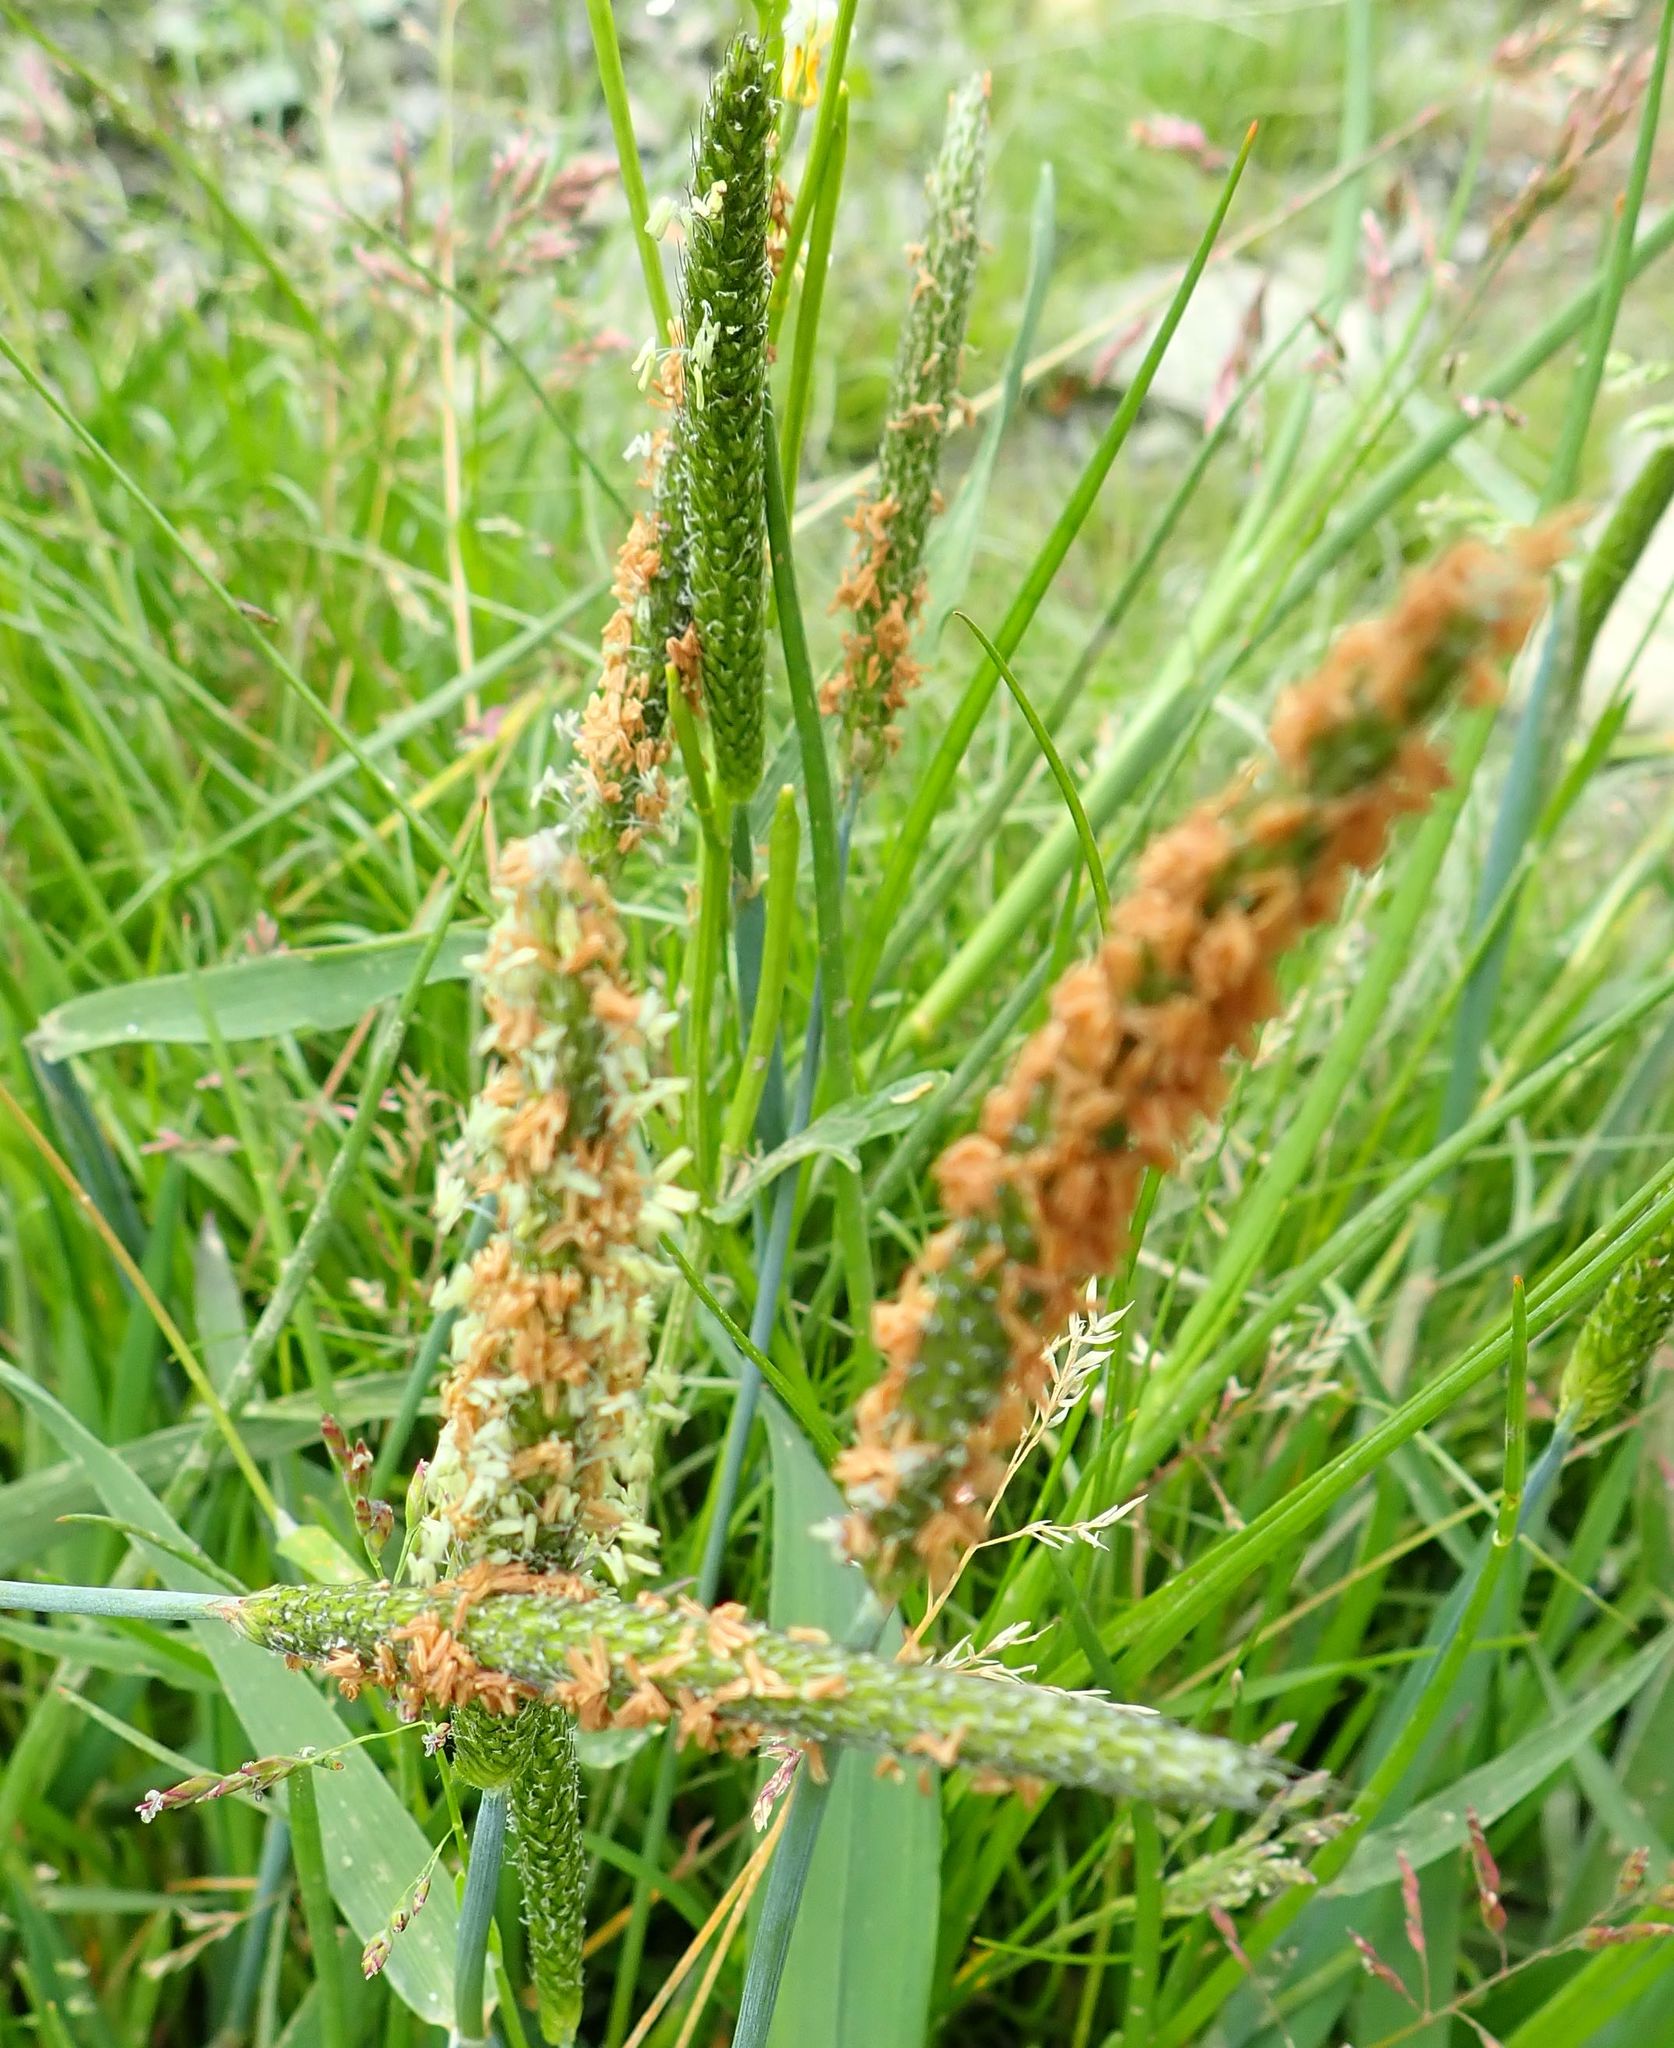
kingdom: Plantae
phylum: Tracheophyta
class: Liliopsida
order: Poales
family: Poaceae
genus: Alopecurus
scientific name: Alopecurus geniculatus
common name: Water foxtail
